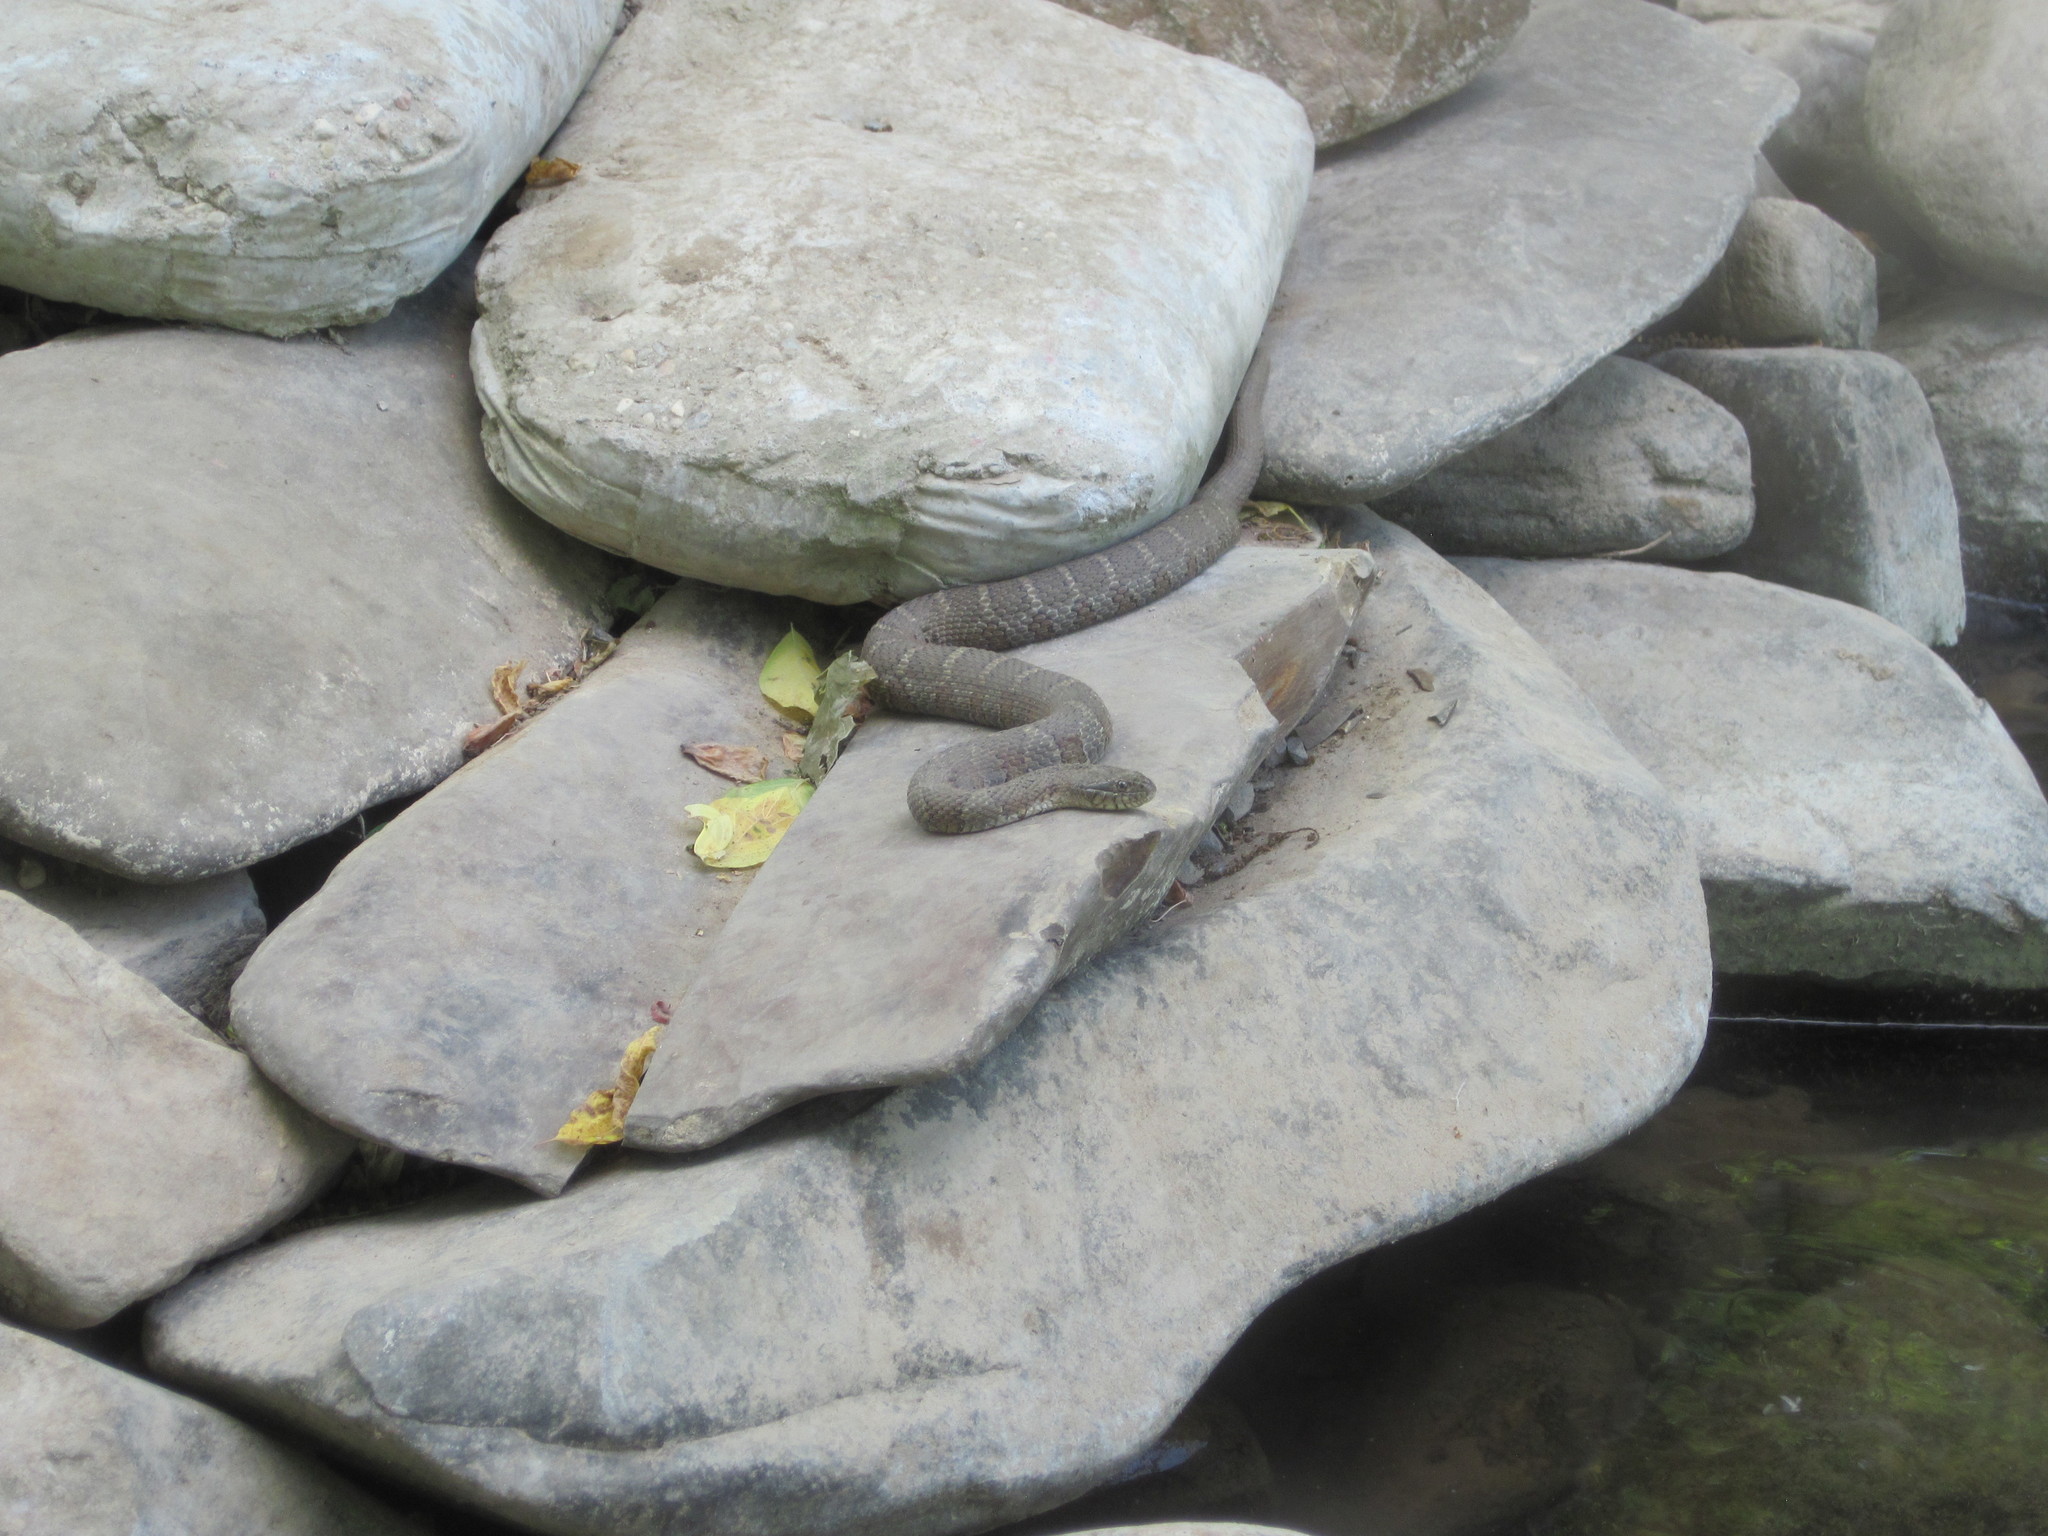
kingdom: Animalia
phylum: Chordata
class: Squamata
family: Colubridae
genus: Nerodia
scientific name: Nerodia sipedon
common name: Northern water snake
